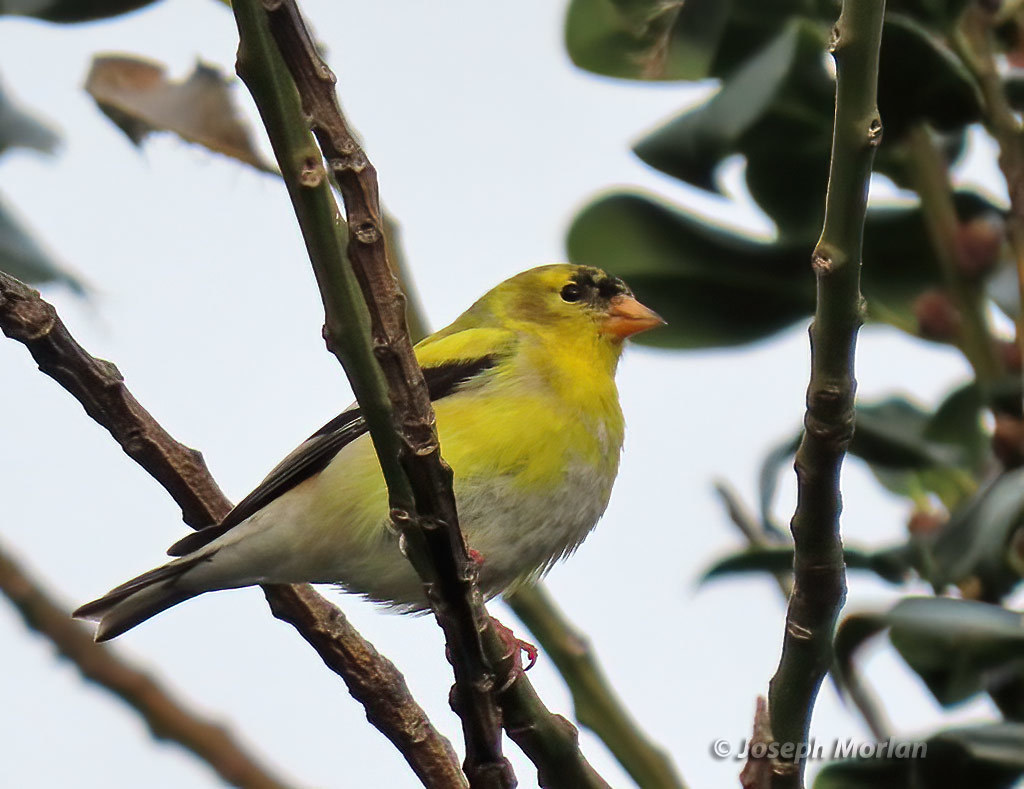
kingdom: Animalia
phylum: Chordata
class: Aves
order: Passeriformes
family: Fringillidae
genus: Spinus
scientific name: Spinus tristis
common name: American goldfinch
